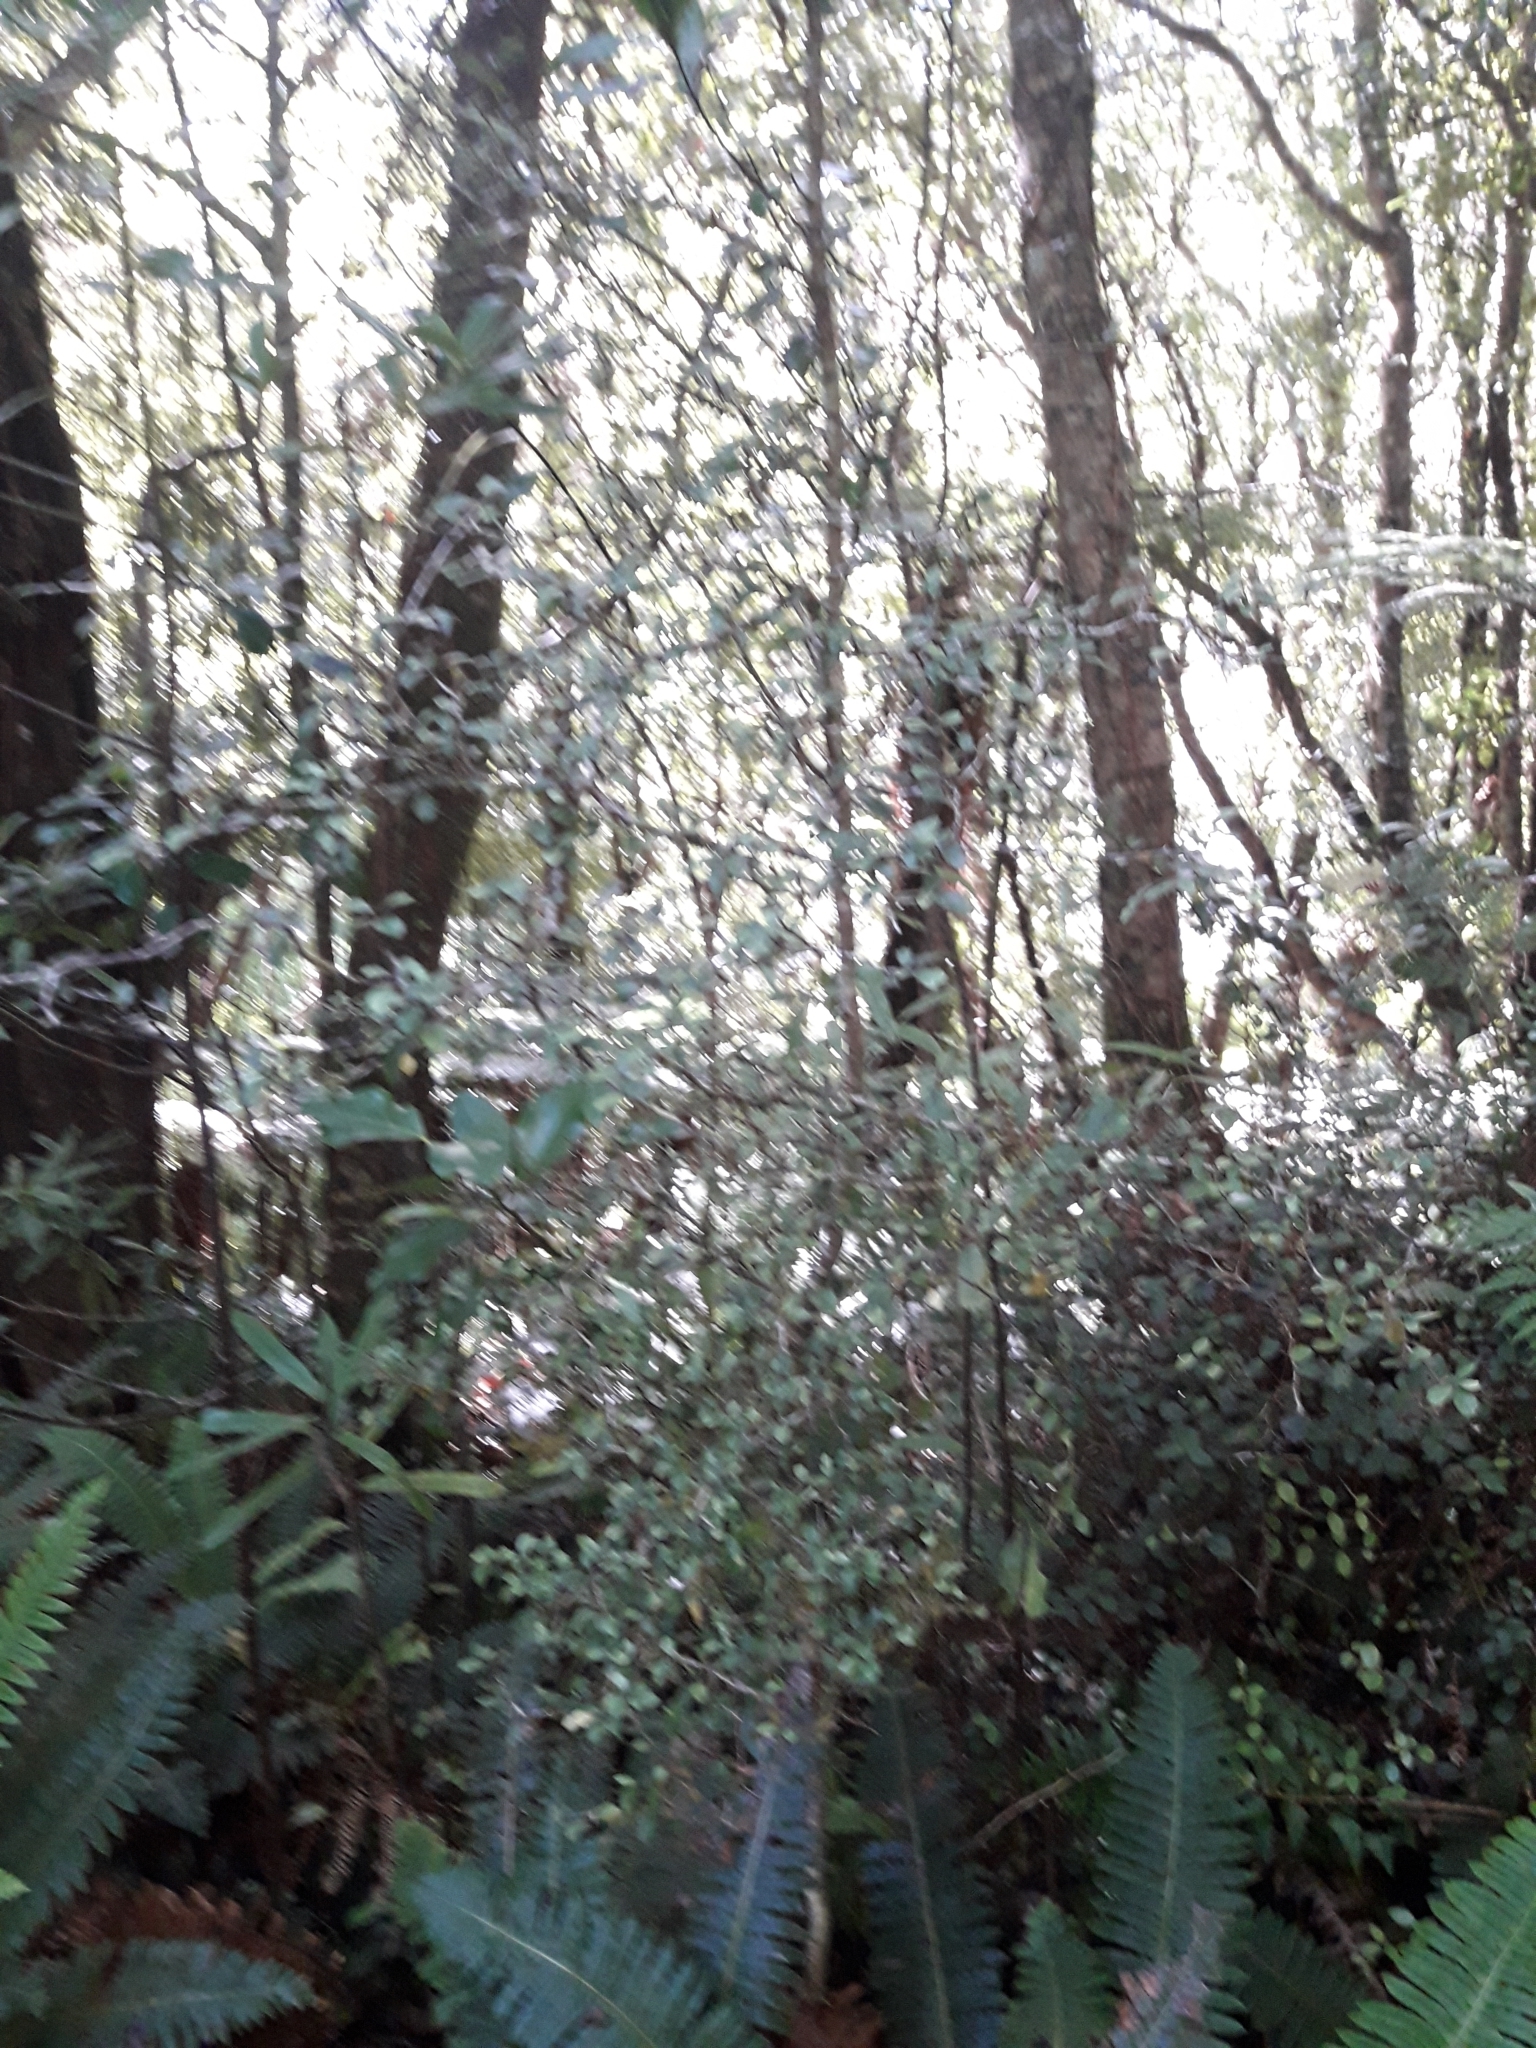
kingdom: Plantae
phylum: Tracheophyta
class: Magnoliopsida
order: Oxalidales
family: Elaeocarpaceae
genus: Elaeocarpus
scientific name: Elaeocarpus hookerianus
